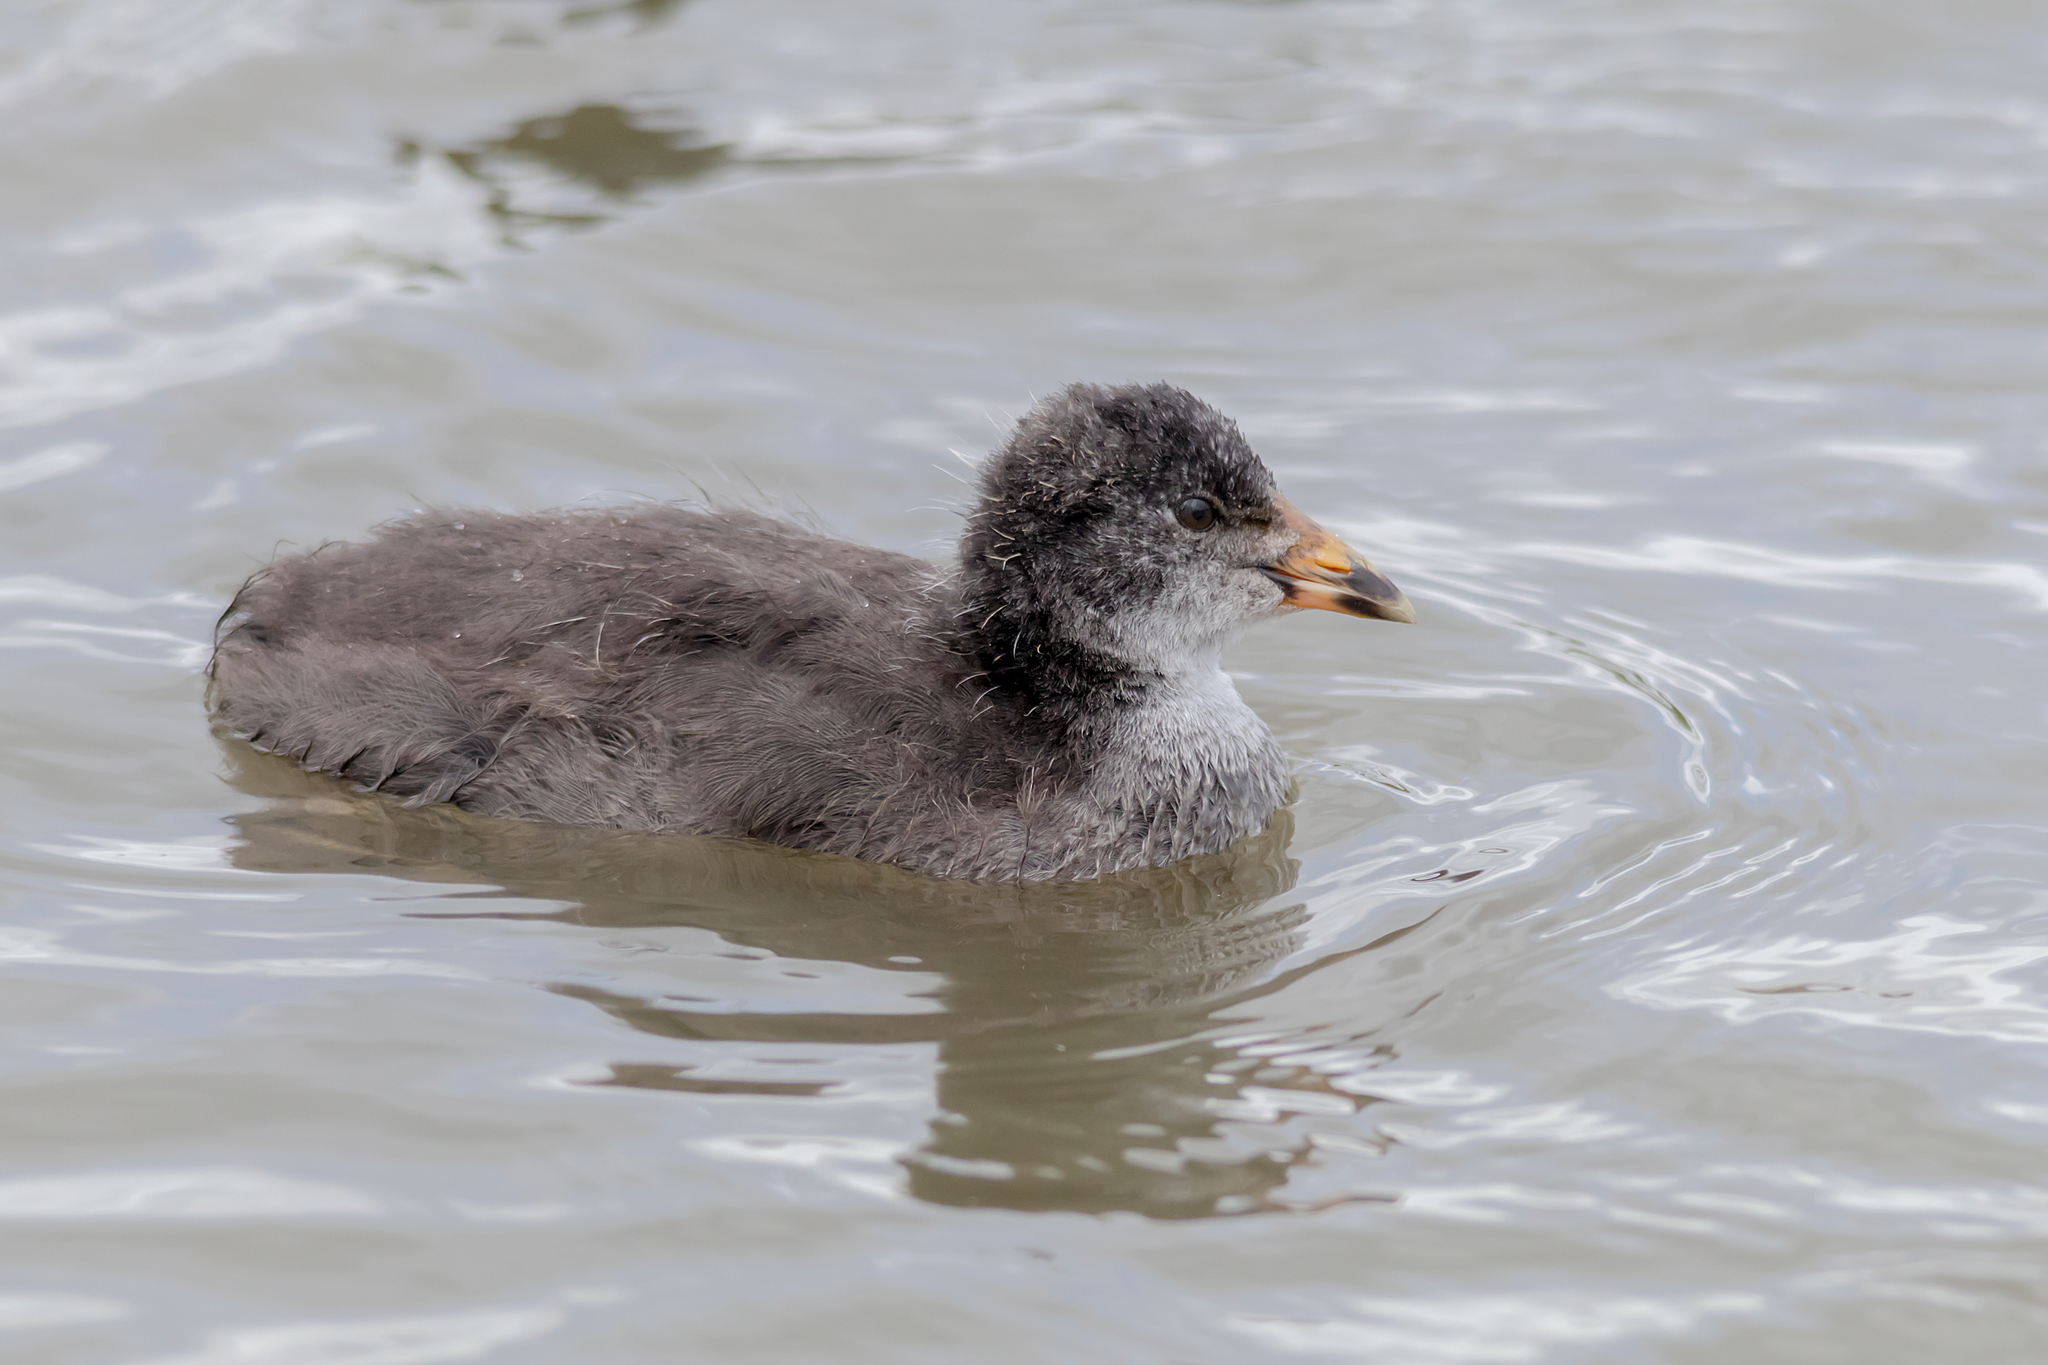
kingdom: Animalia
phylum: Chordata
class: Aves
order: Gruiformes
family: Rallidae
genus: Fulica
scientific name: Fulica atra
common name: Eurasian coot
